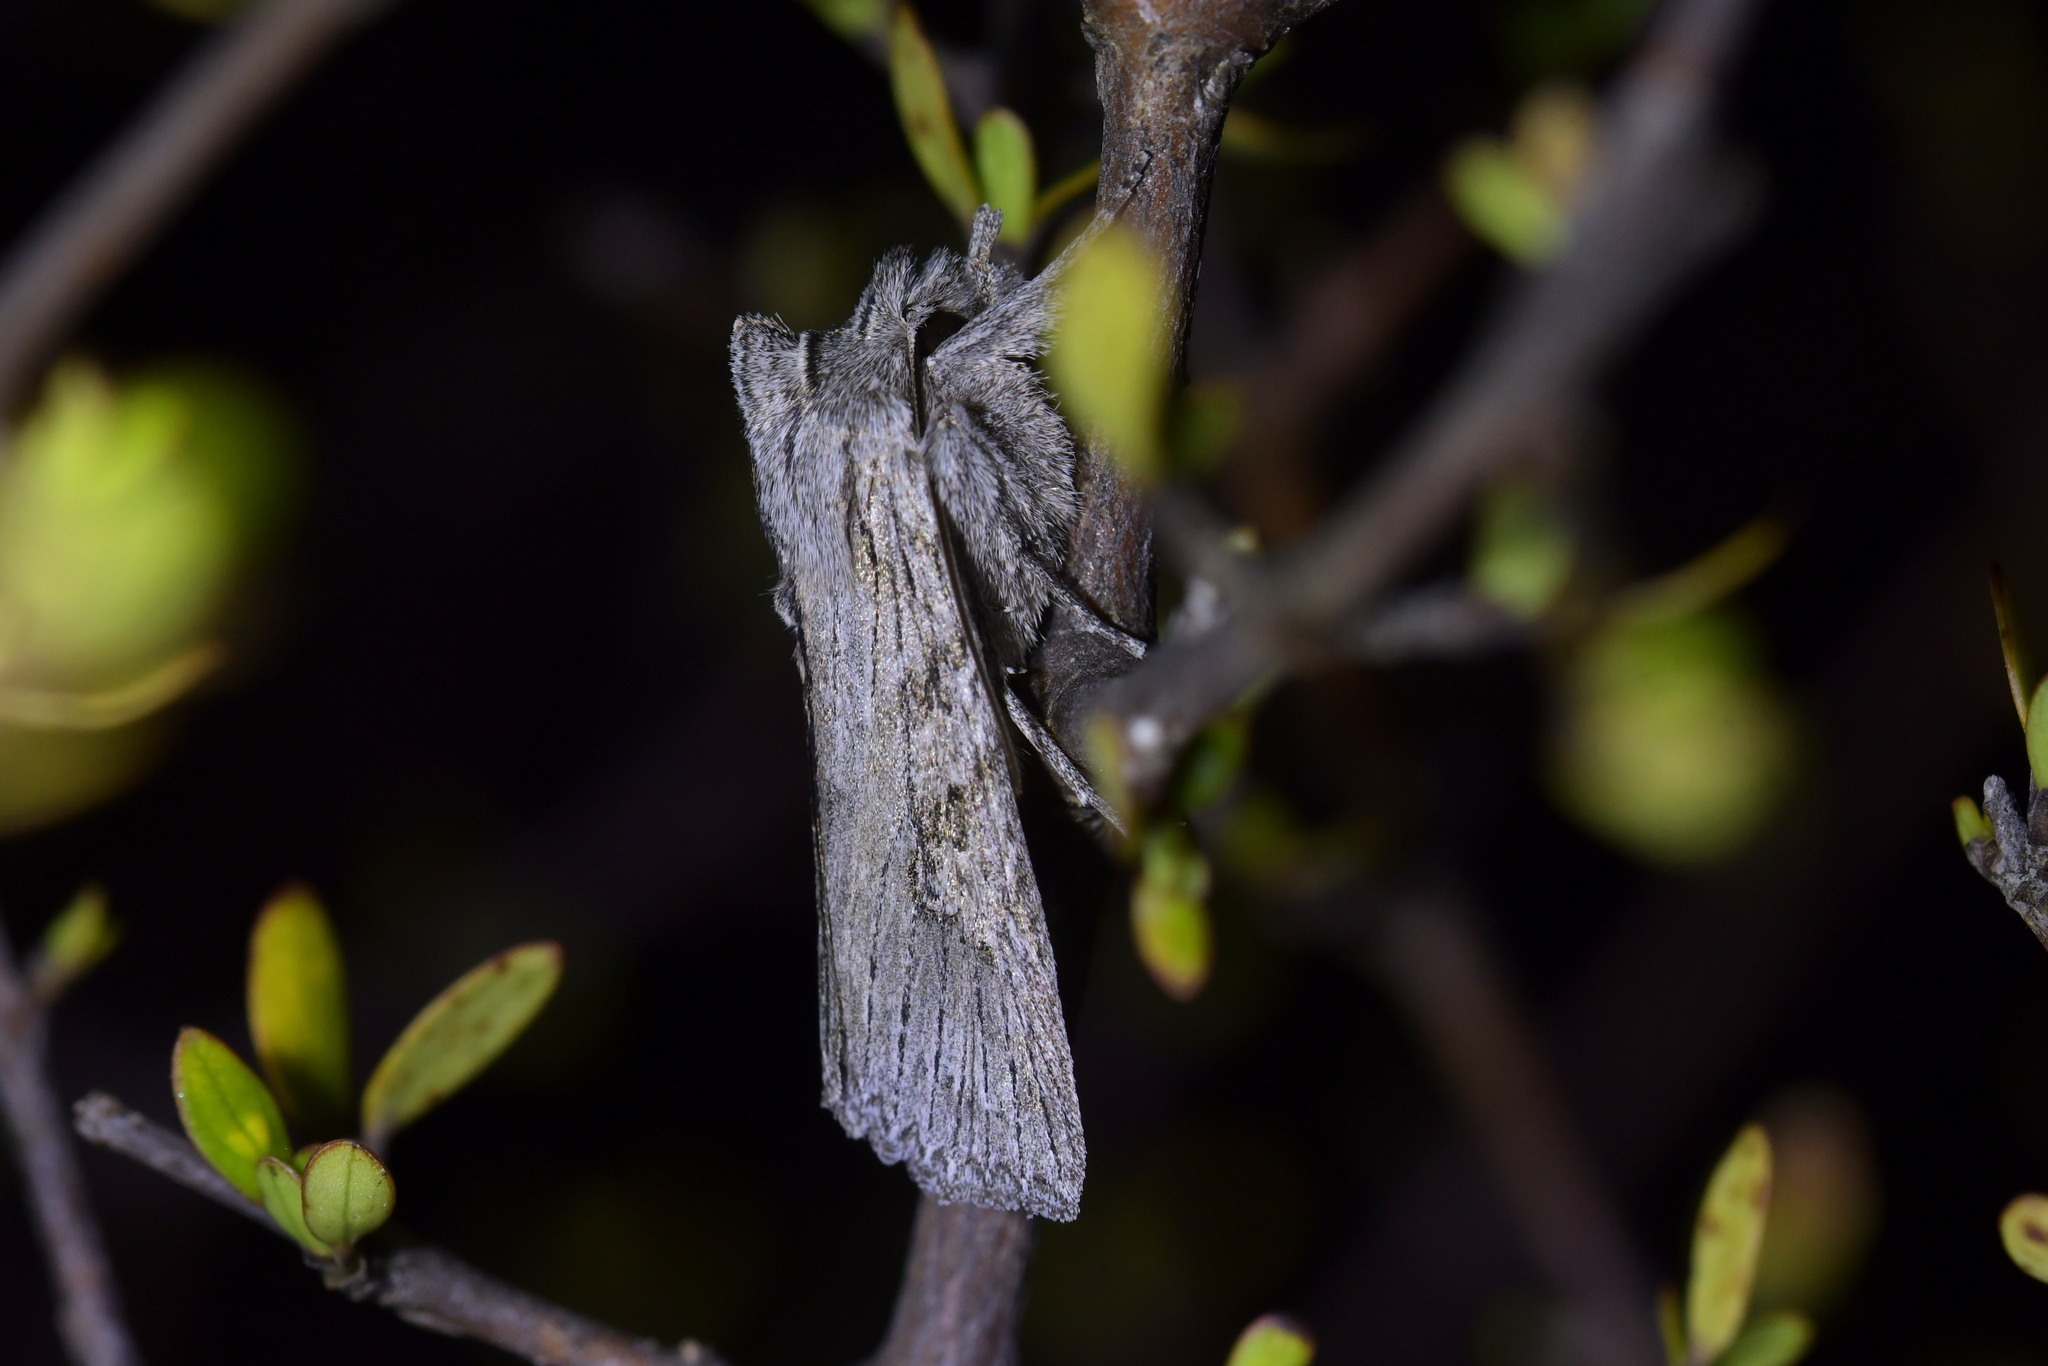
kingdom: Animalia
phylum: Arthropoda
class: Insecta
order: Lepidoptera
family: Noctuidae
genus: Physetica
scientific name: Physetica phricias
